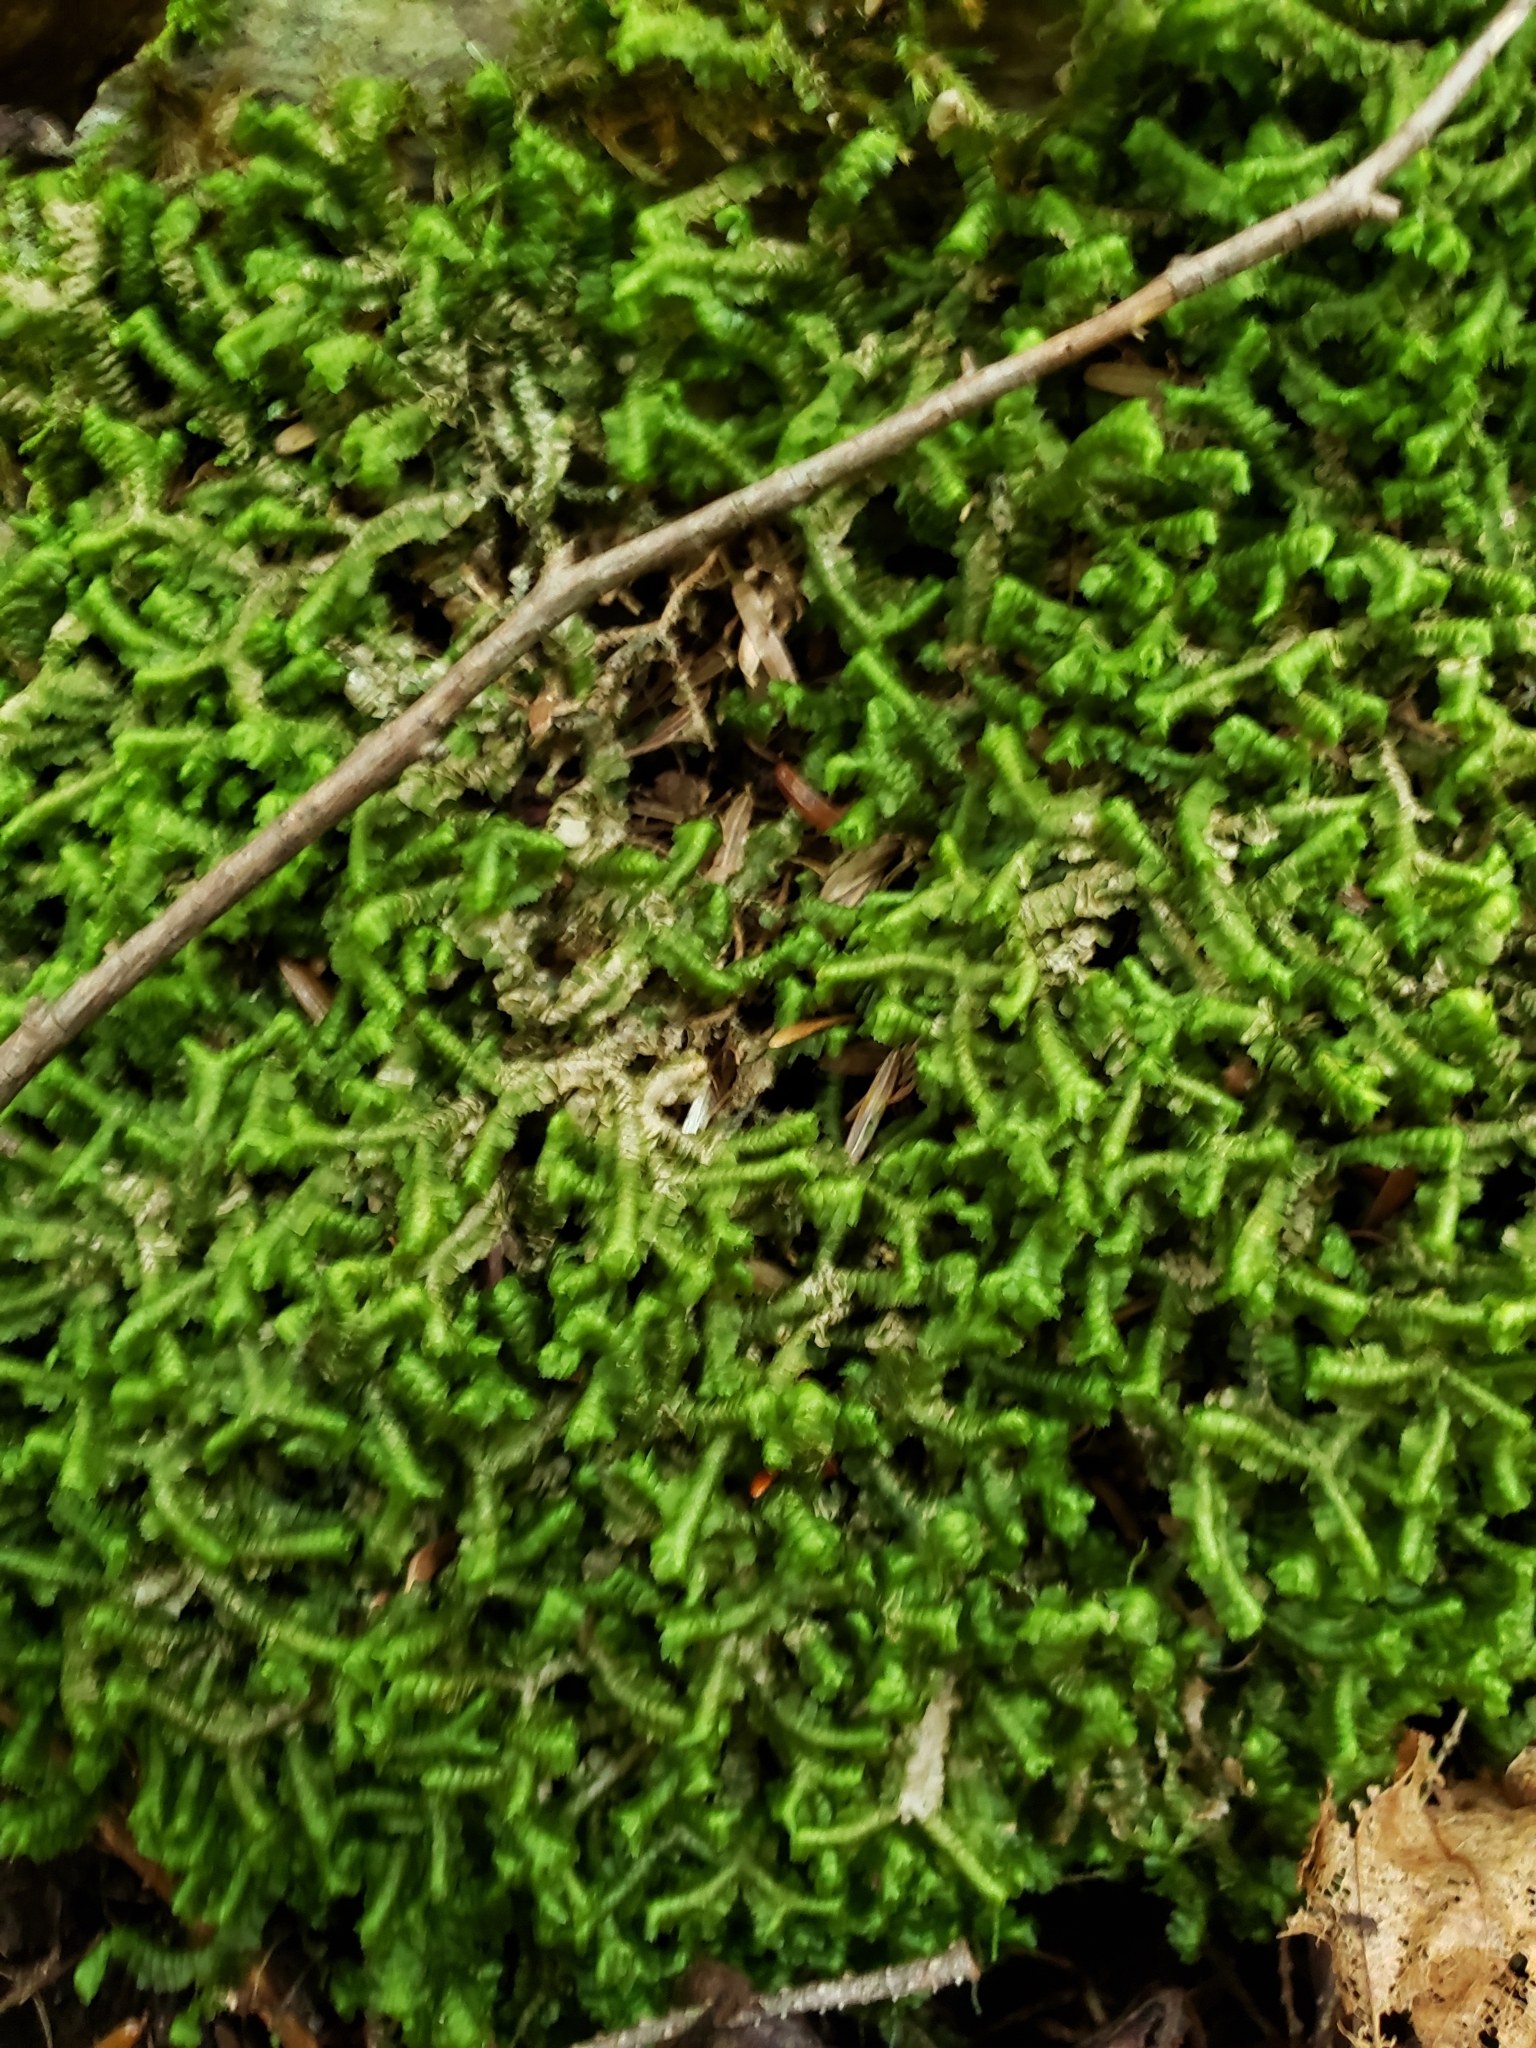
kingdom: Plantae
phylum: Marchantiophyta
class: Jungermanniopsida
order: Jungermanniales
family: Lepidoziaceae
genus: Bazzania
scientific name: Bazzania trilobata
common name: Three-lobed whipwort
